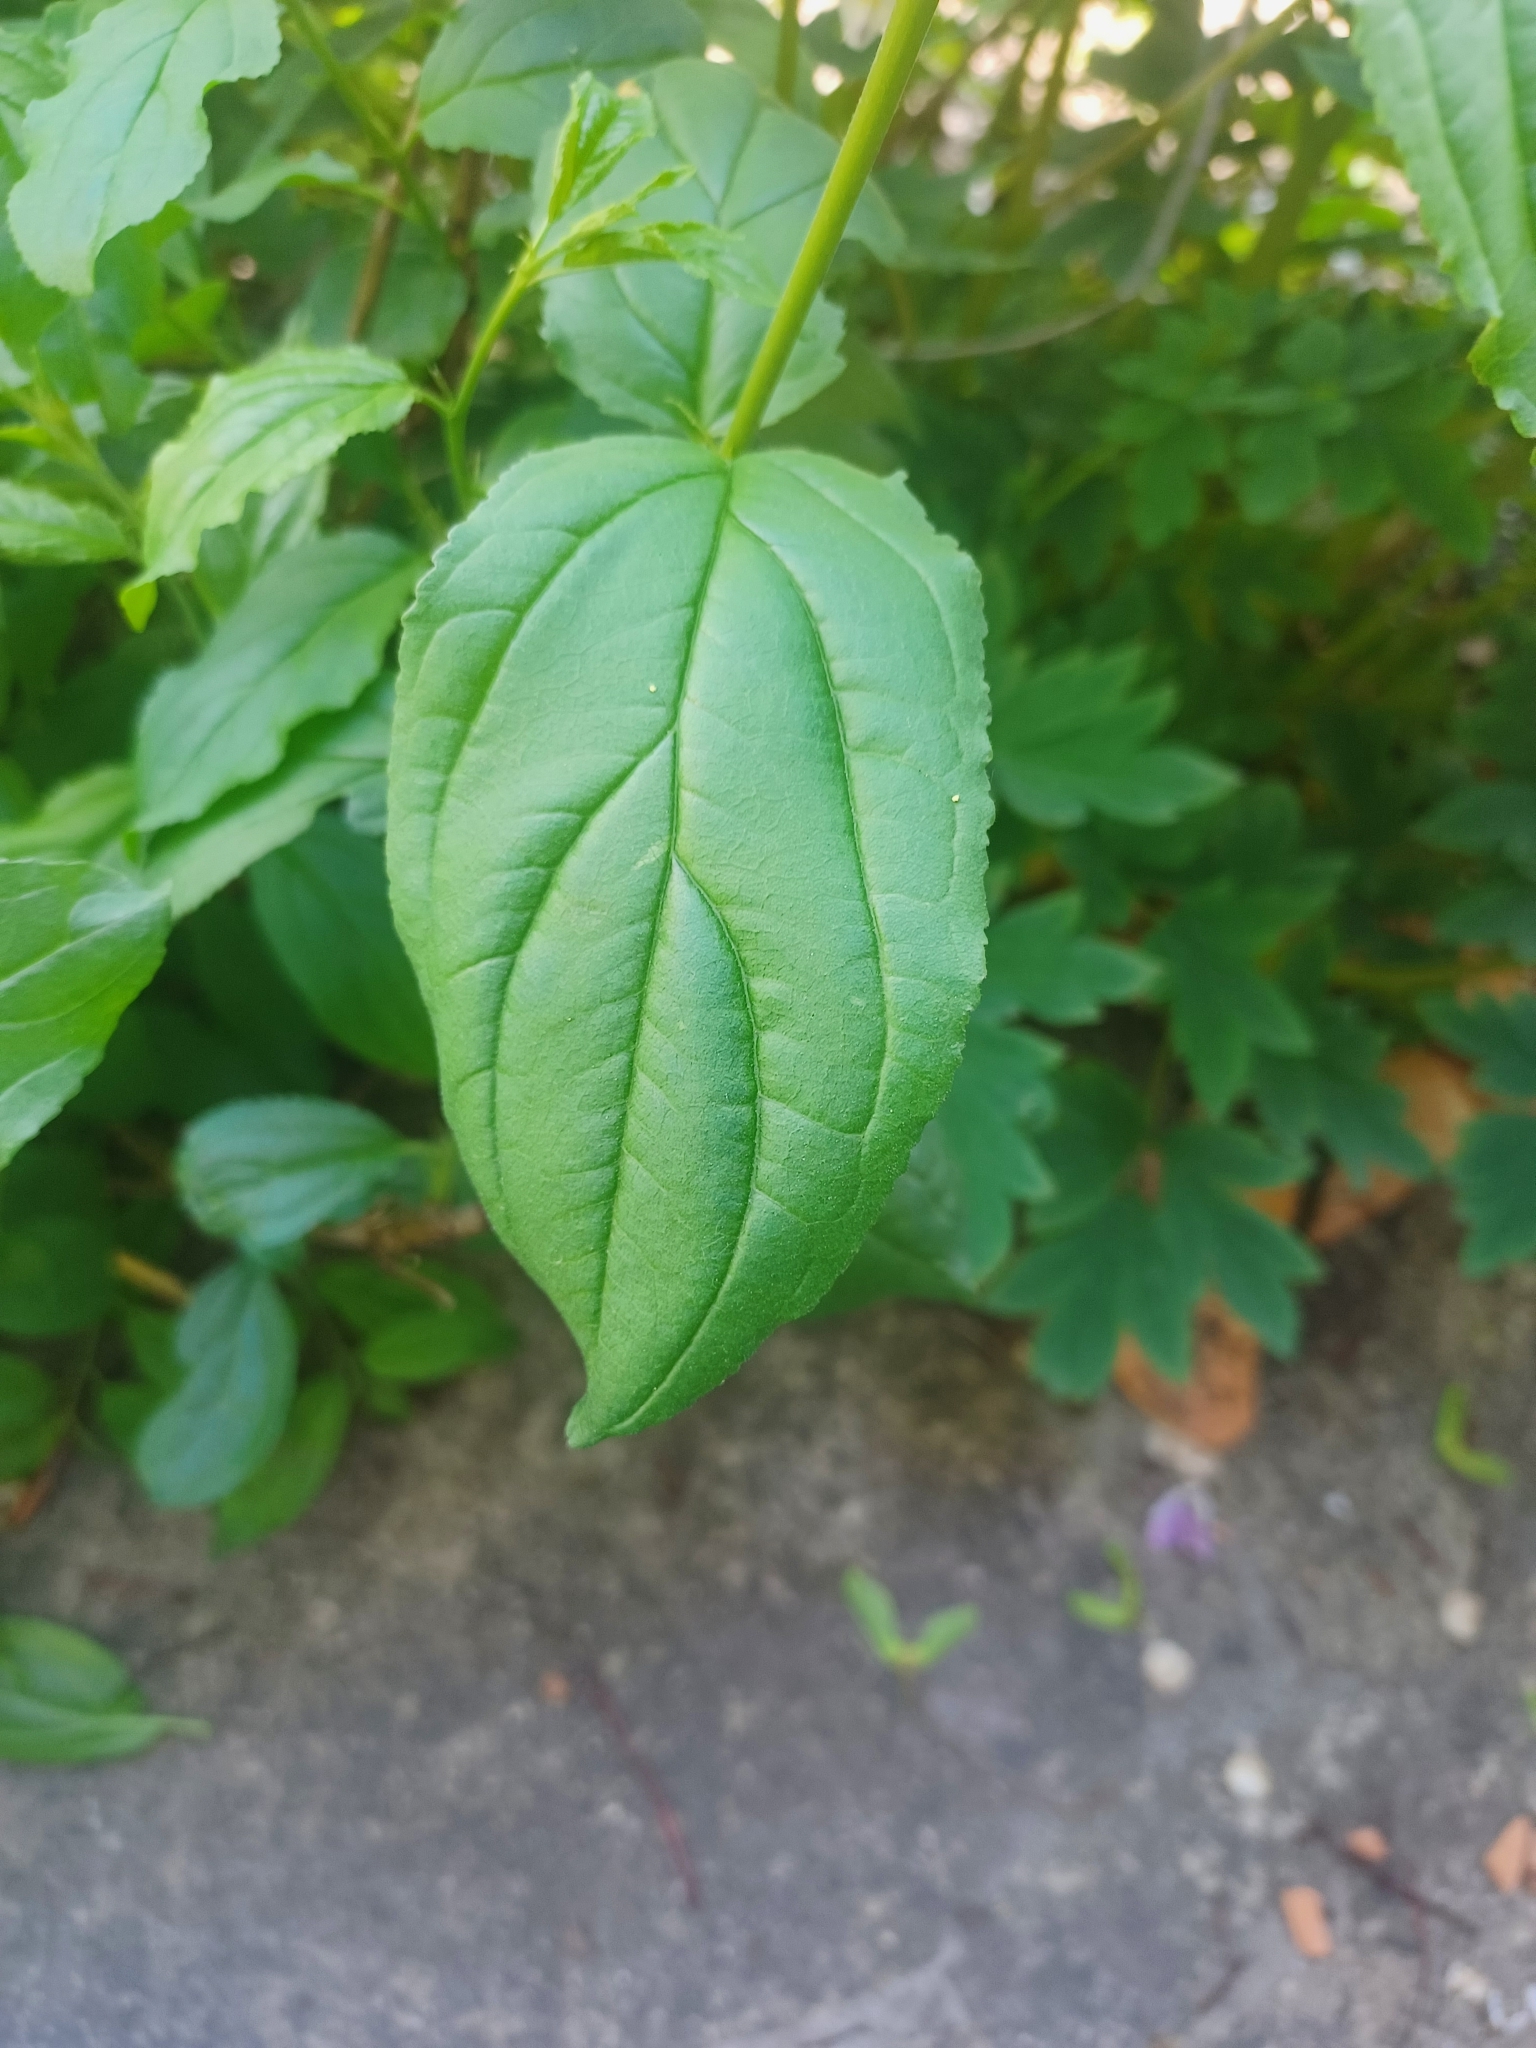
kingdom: Plantae
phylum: Tracheophyta
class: Magnoliopsida
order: Rosales
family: Rhamnaceae
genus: Rhamnus
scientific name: Rhamnus cathartica
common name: Common buckthorn
